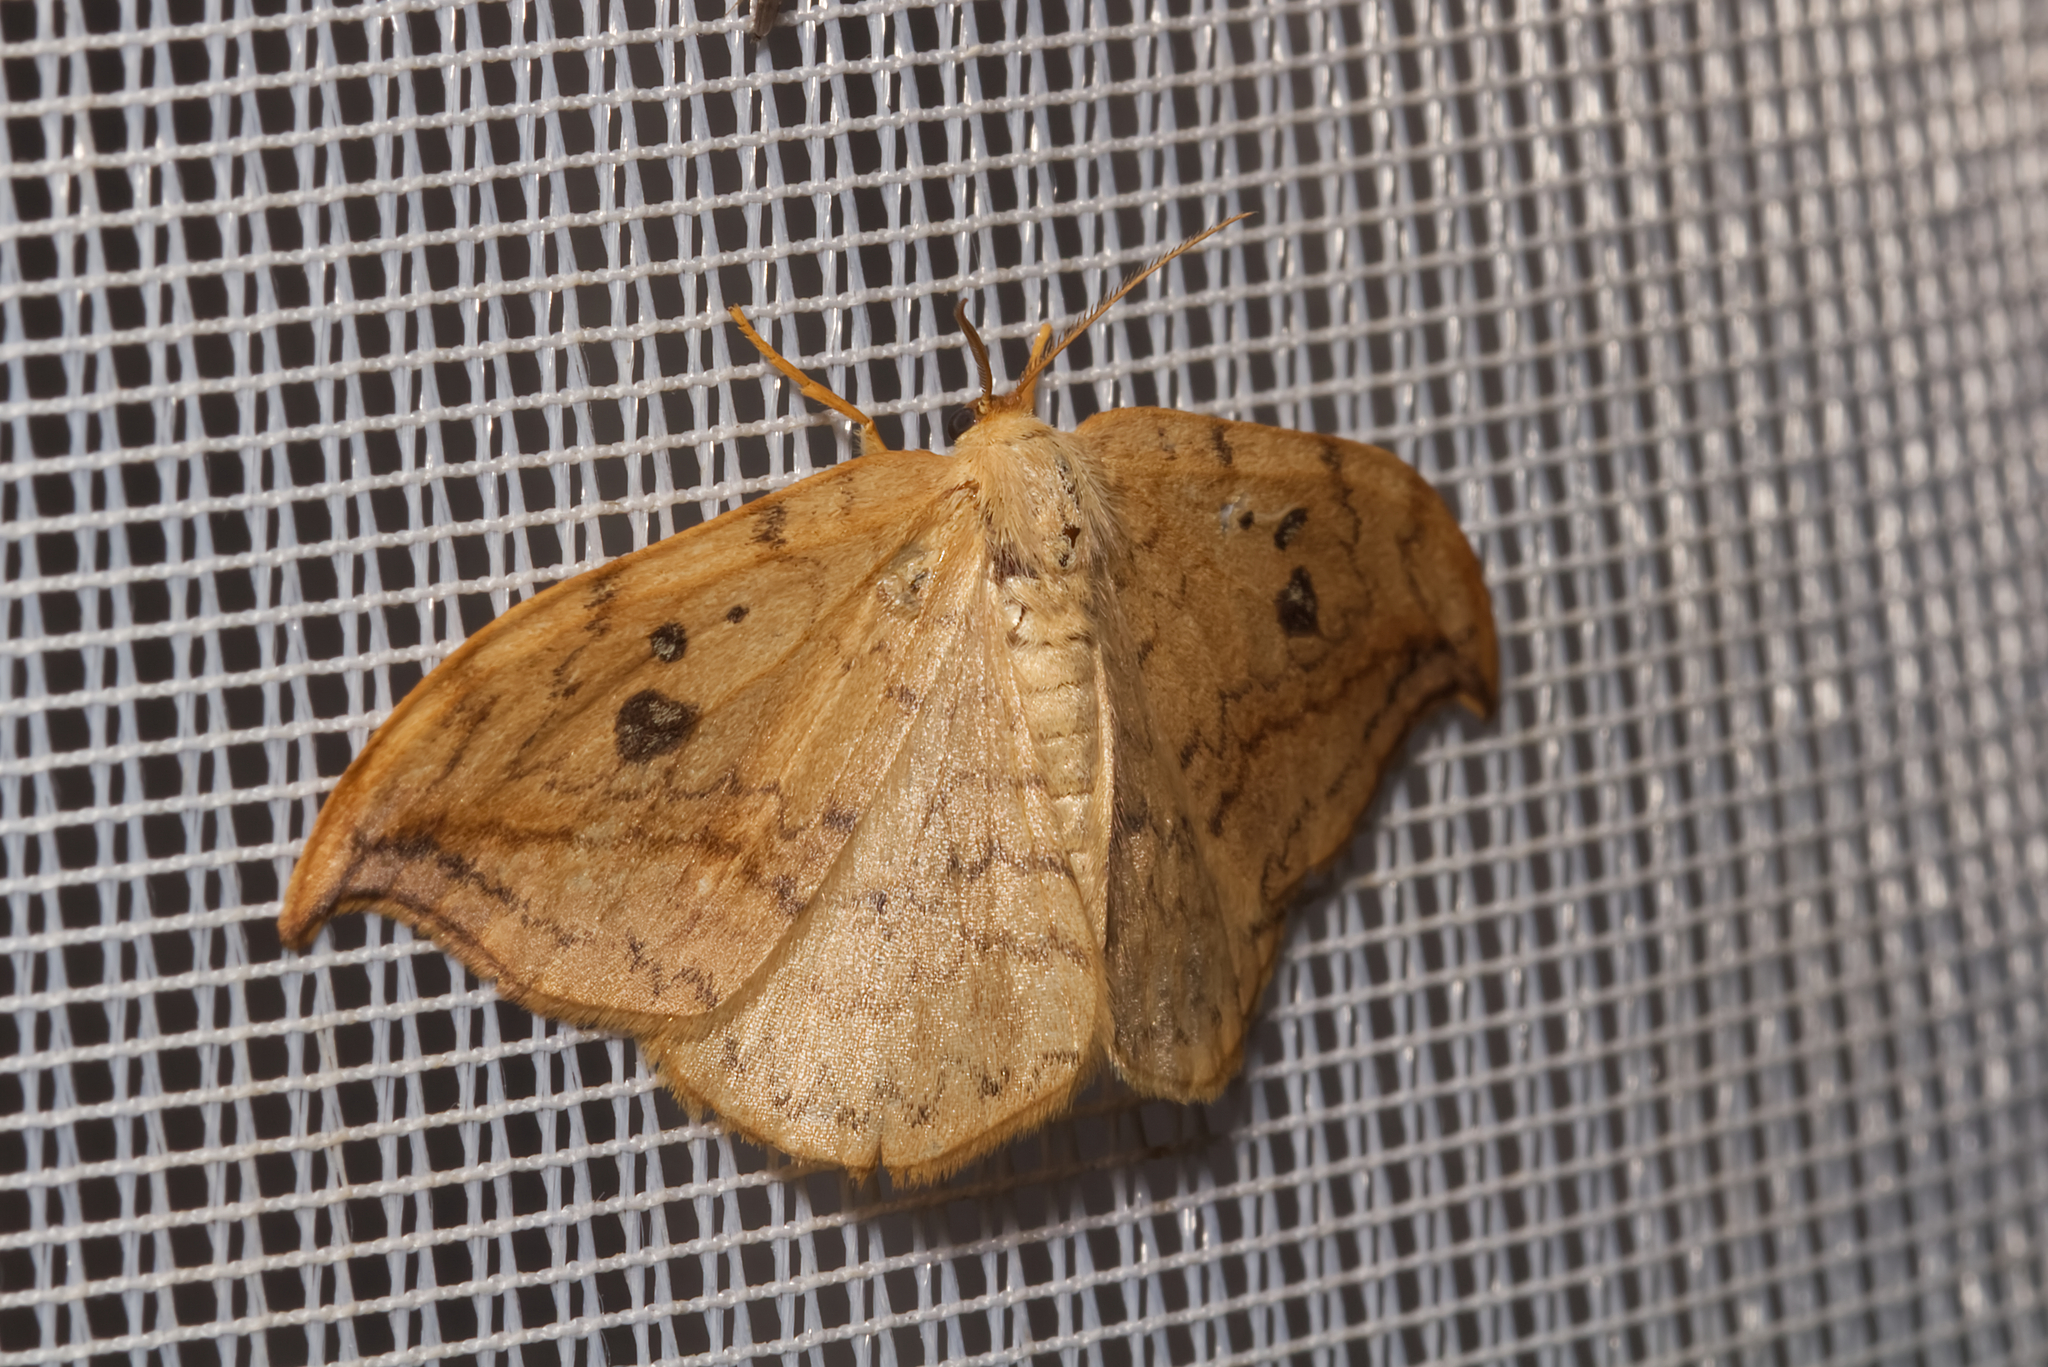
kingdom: Animalia
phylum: Arthropoda
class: Insecta
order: Lepidoptera
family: Drepanidae
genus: Drepana
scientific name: Drepana falcataria
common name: Pebble hook-tip
